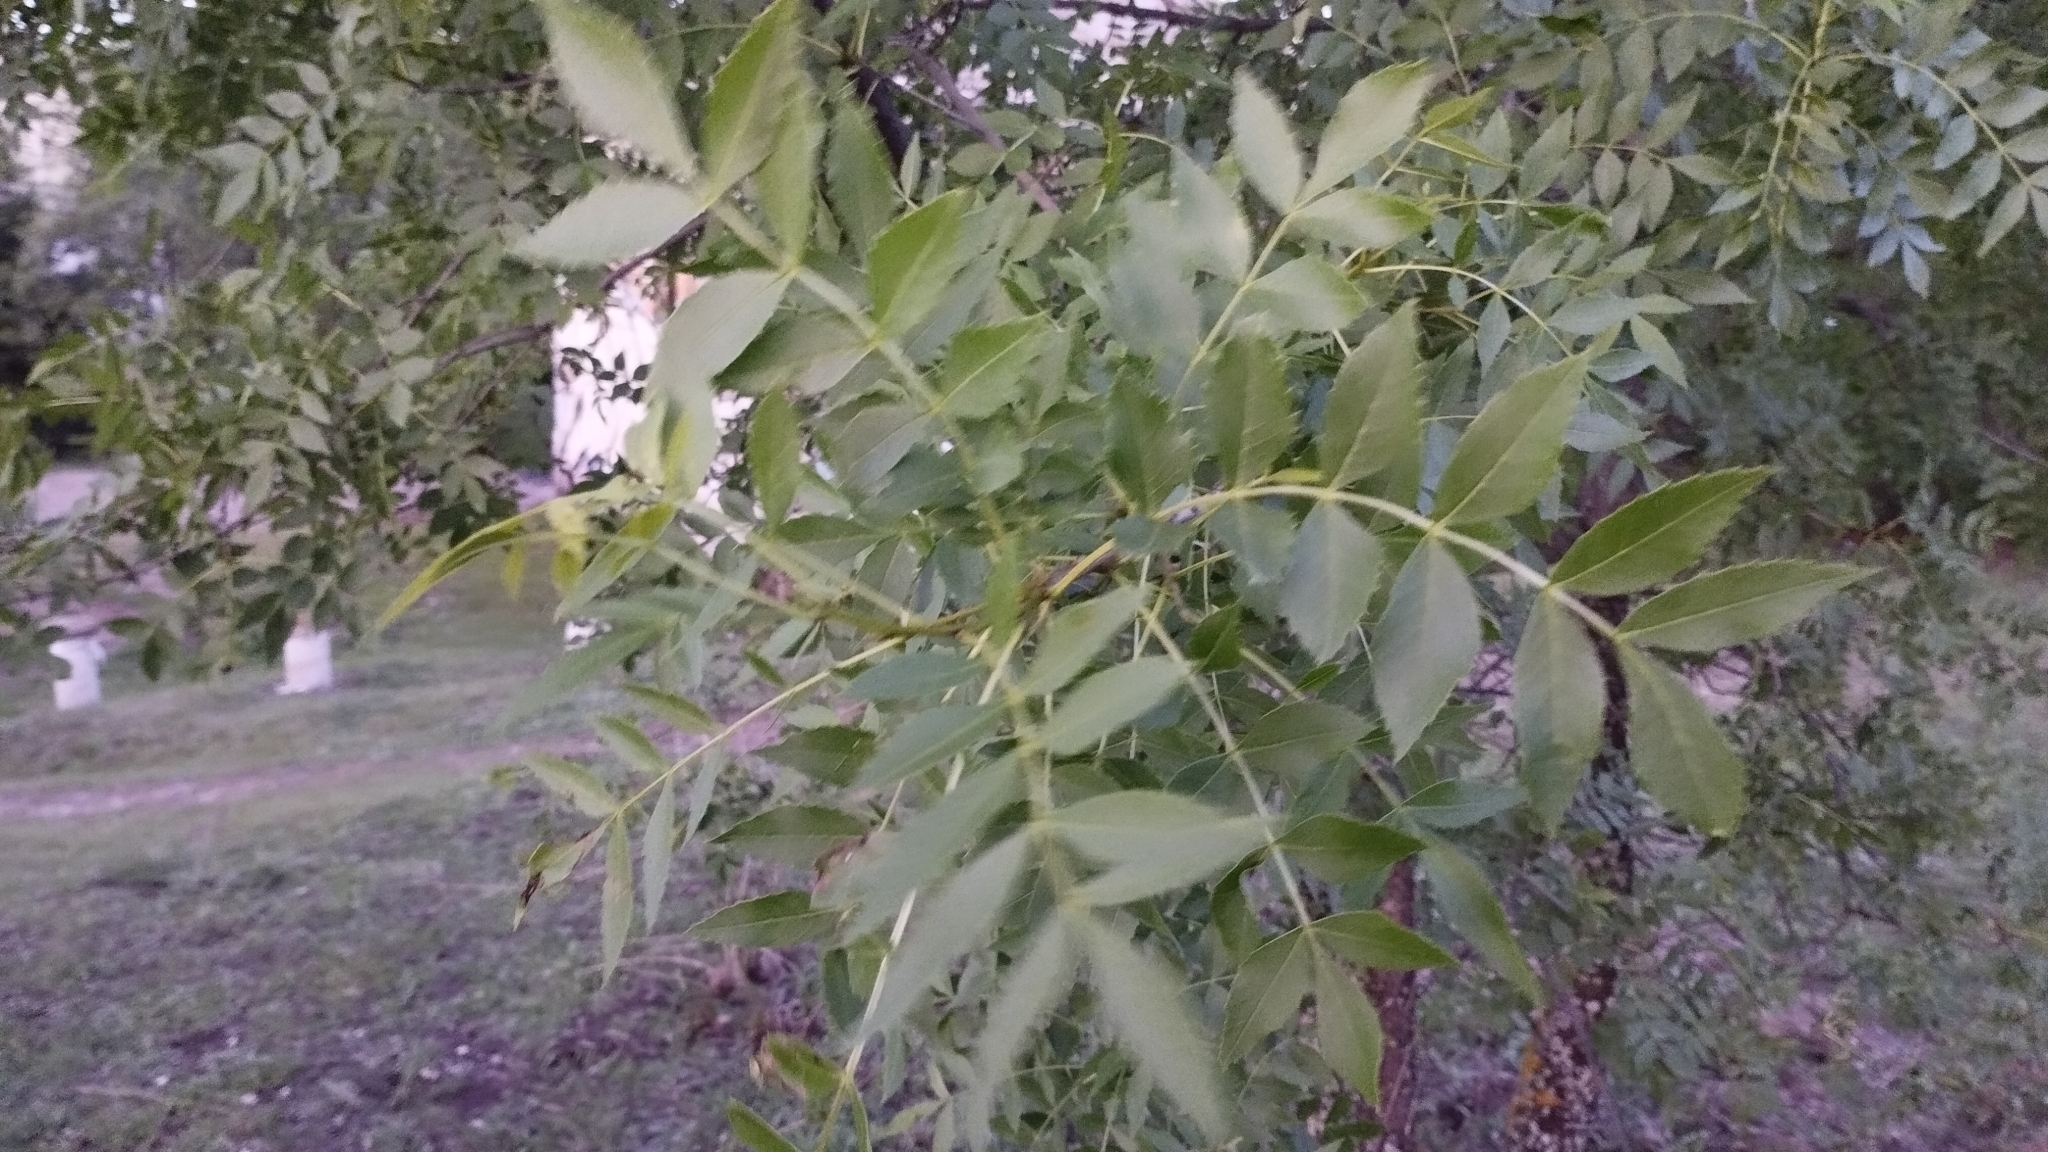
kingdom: Plantae
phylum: Tracheophyta
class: Magnoliopsida
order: Lamiales
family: Oleaceae
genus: Fraxinus
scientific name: Fraxinus angustifolia
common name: Narrow-leafed ash
